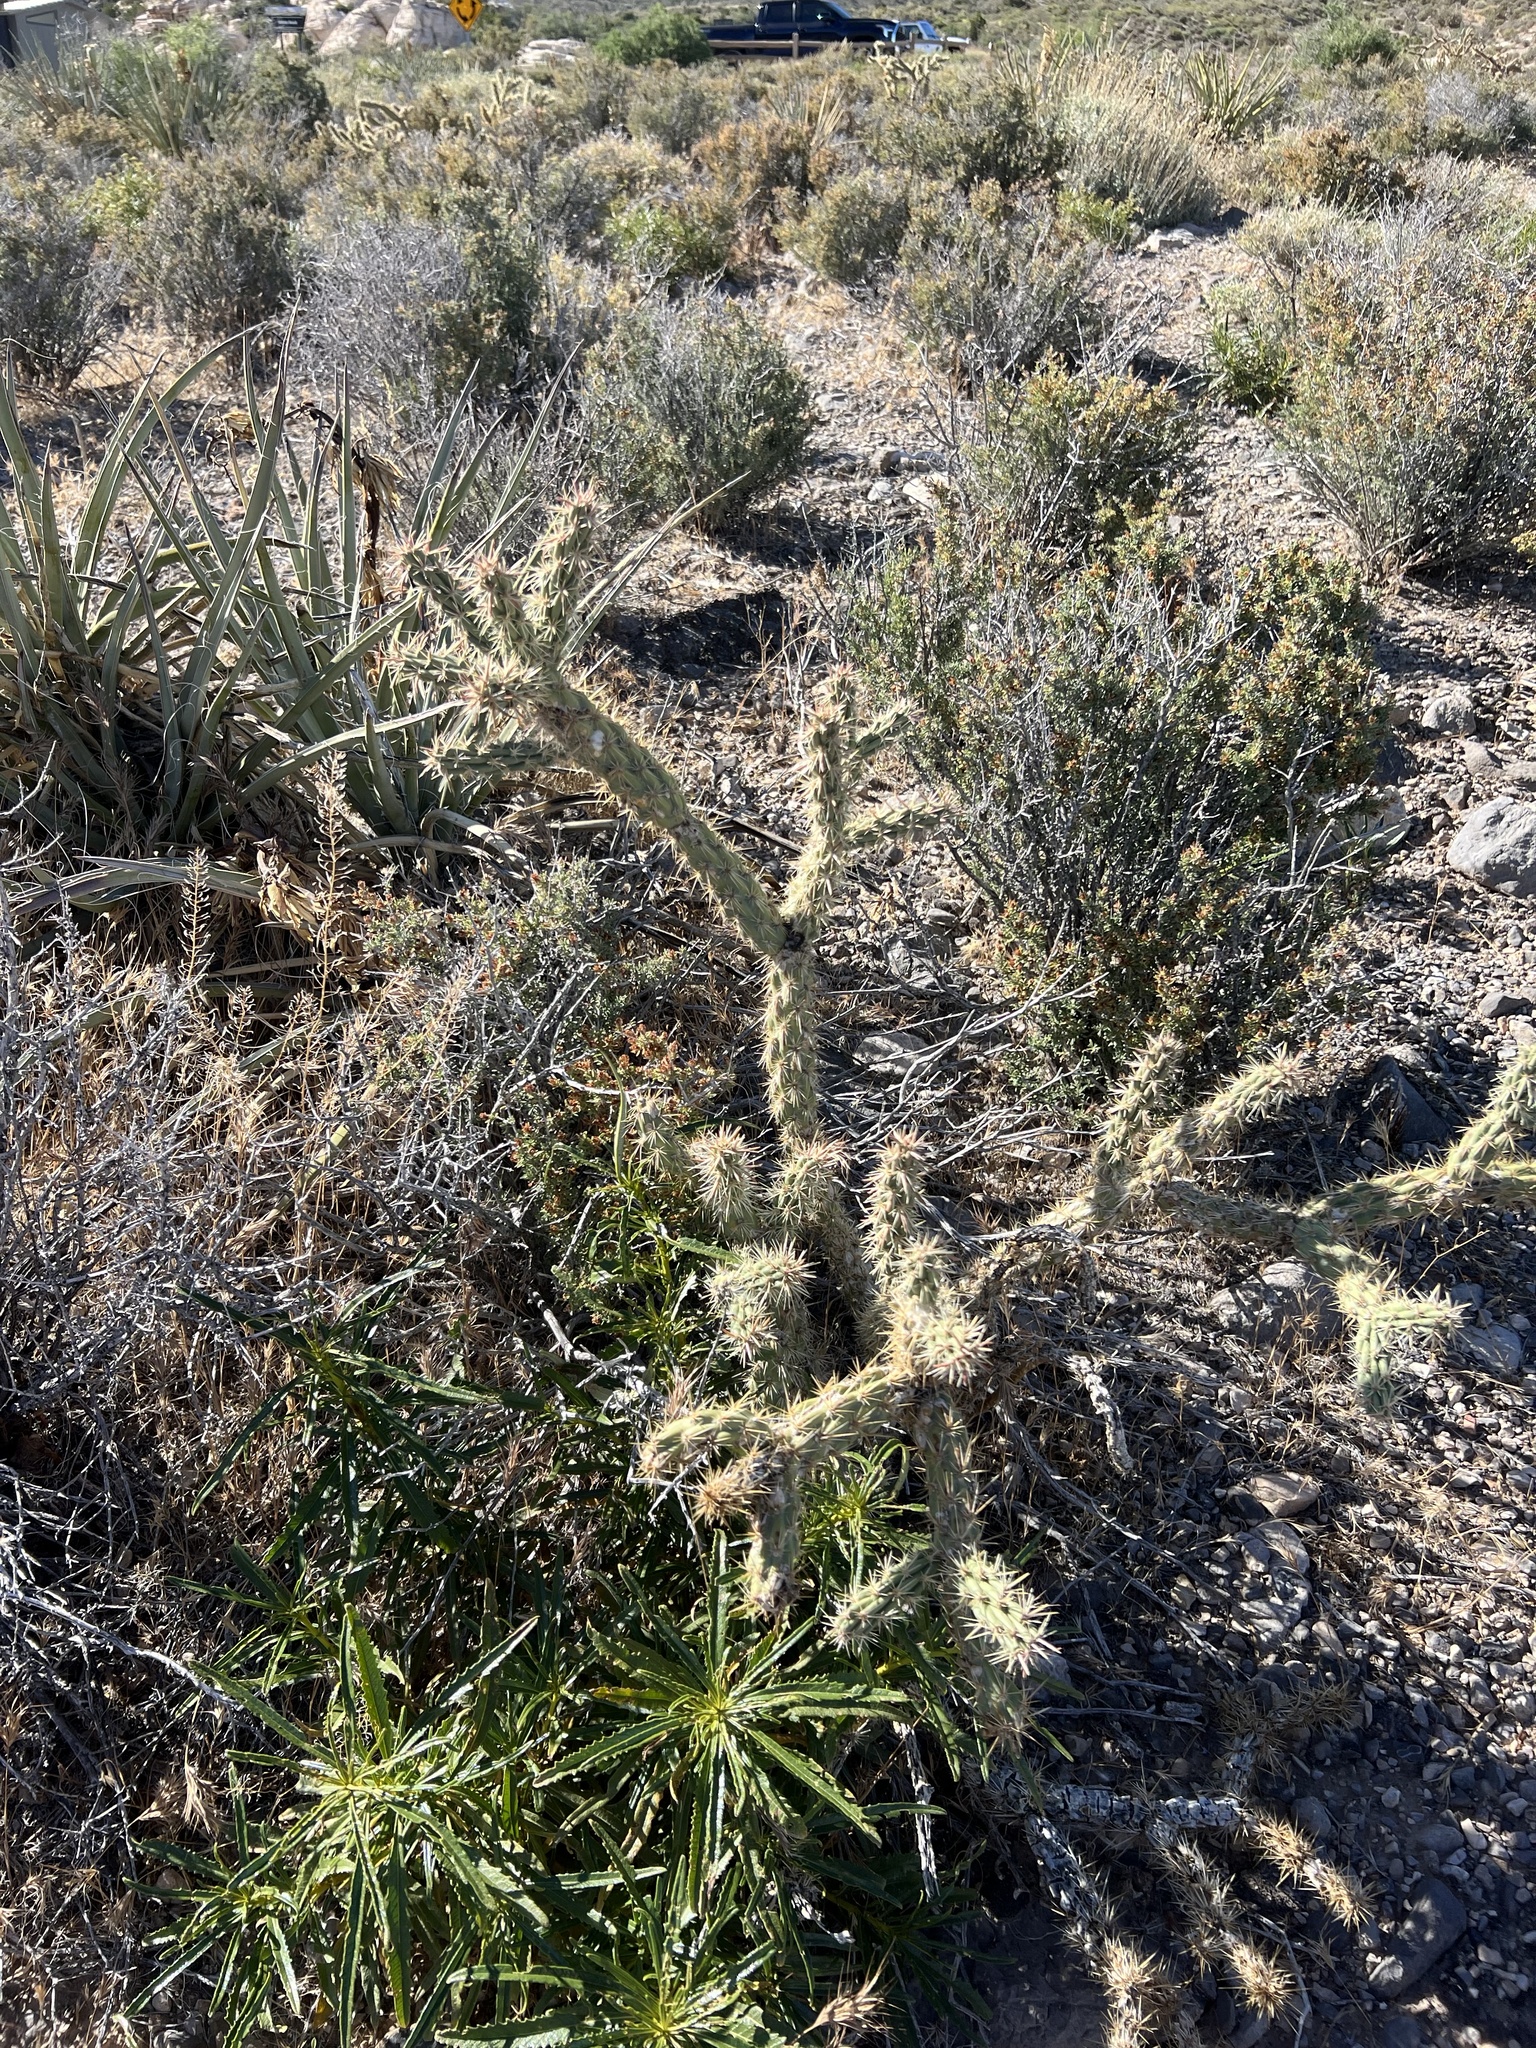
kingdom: Plantae
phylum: Tracheophyta
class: Magnoliopsida
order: Caryophyllales
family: Cactaceae
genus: Cylindropuntia
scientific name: Cylindropuntia acanthocarpa
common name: Buckhorn cholla
